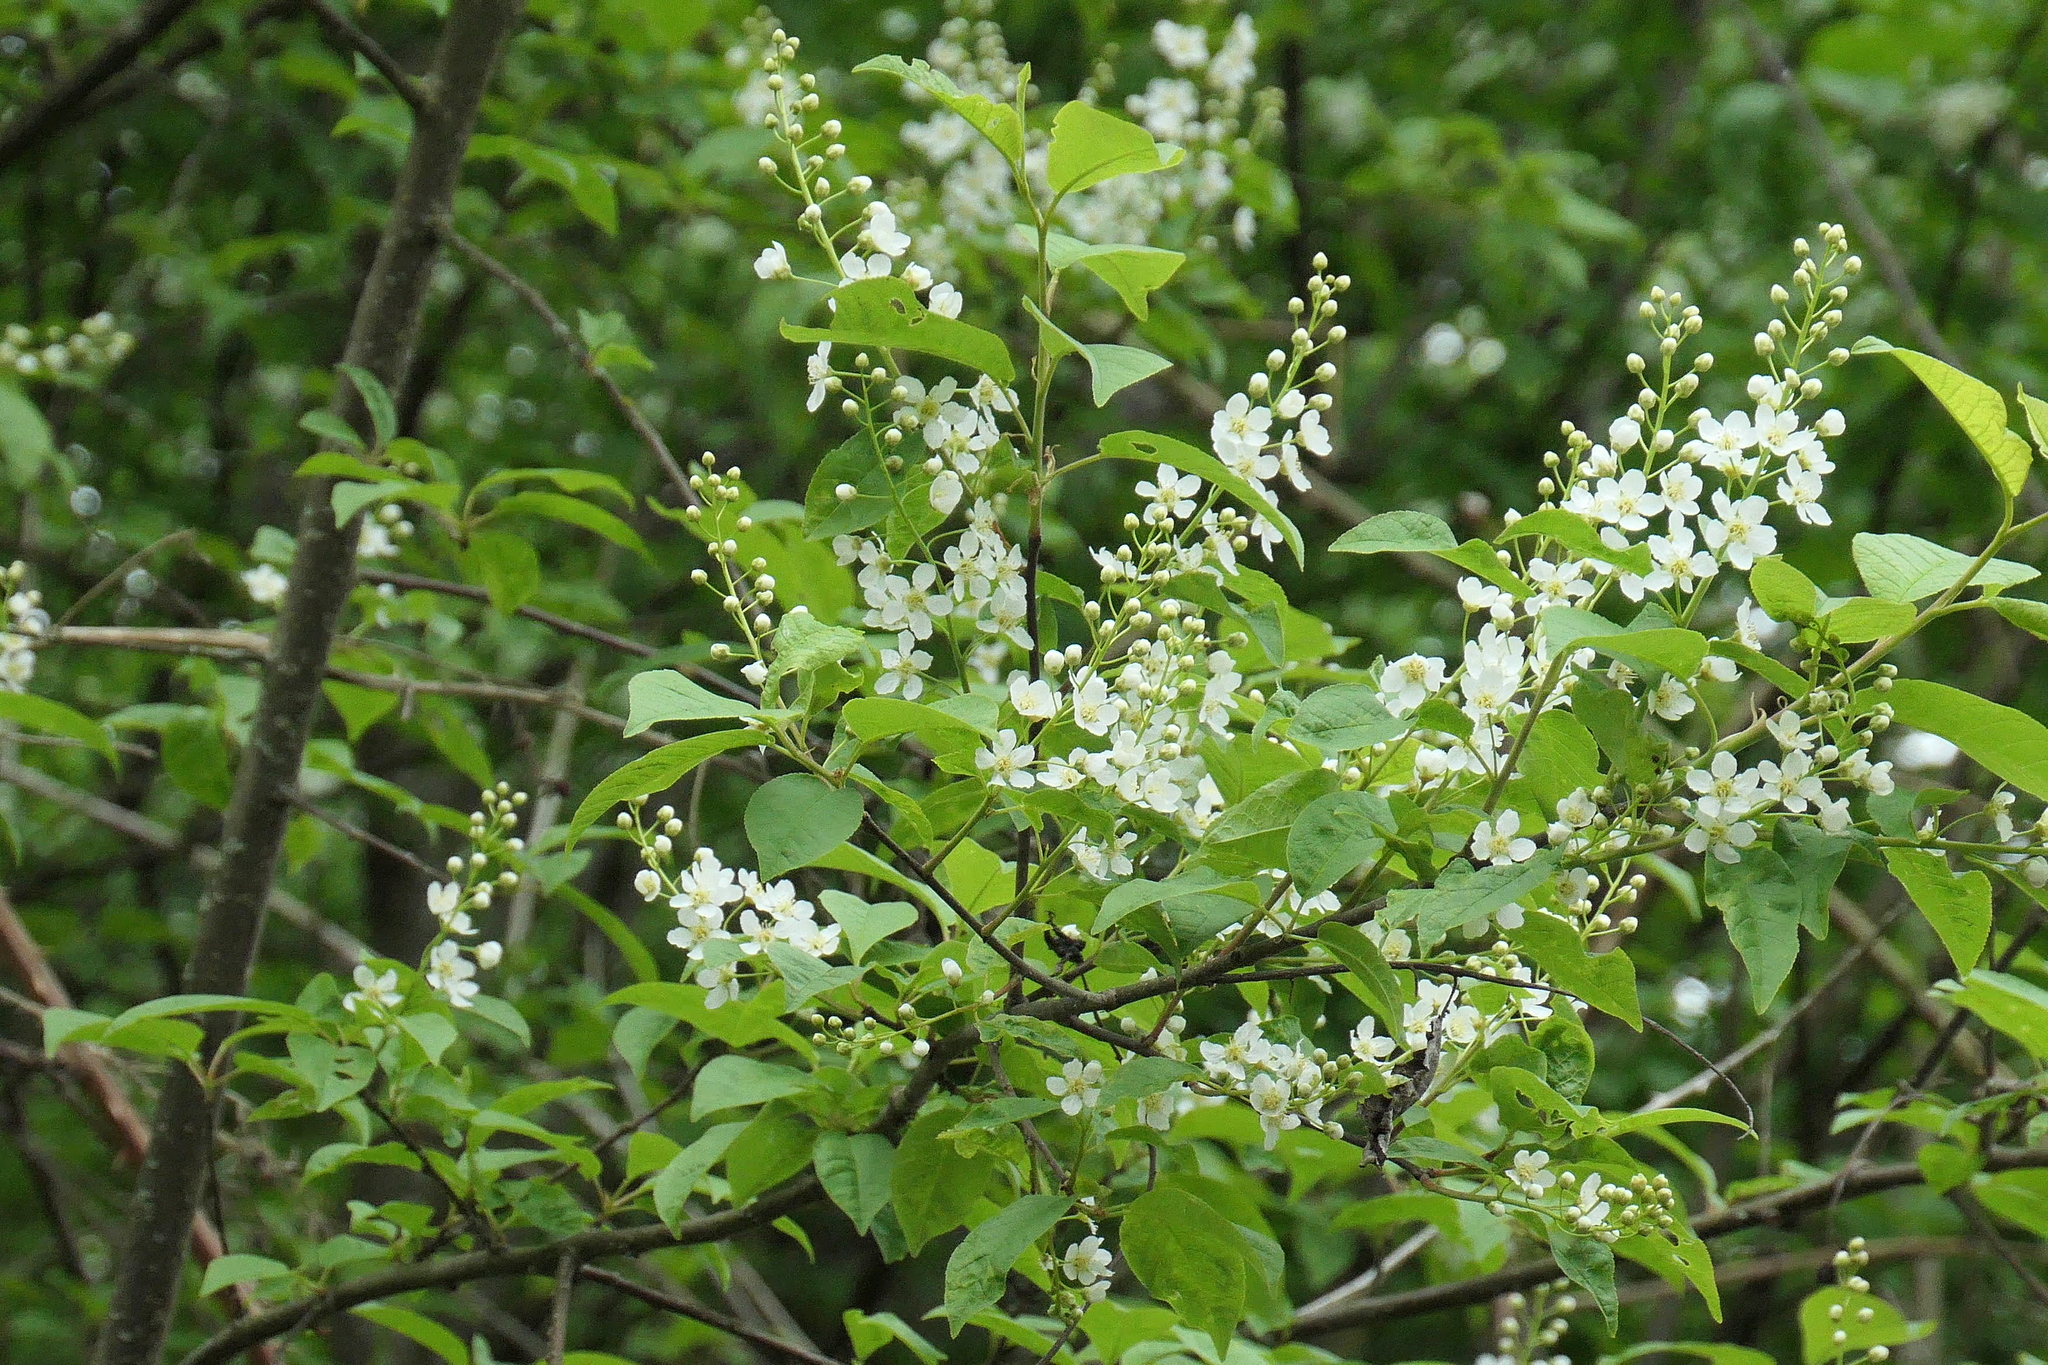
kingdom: Plantae
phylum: Tracheophyta
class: Magnoliopsida
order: Rosales
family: Rosaceae
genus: Prunus
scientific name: Prunus padus
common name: Bird cherry
